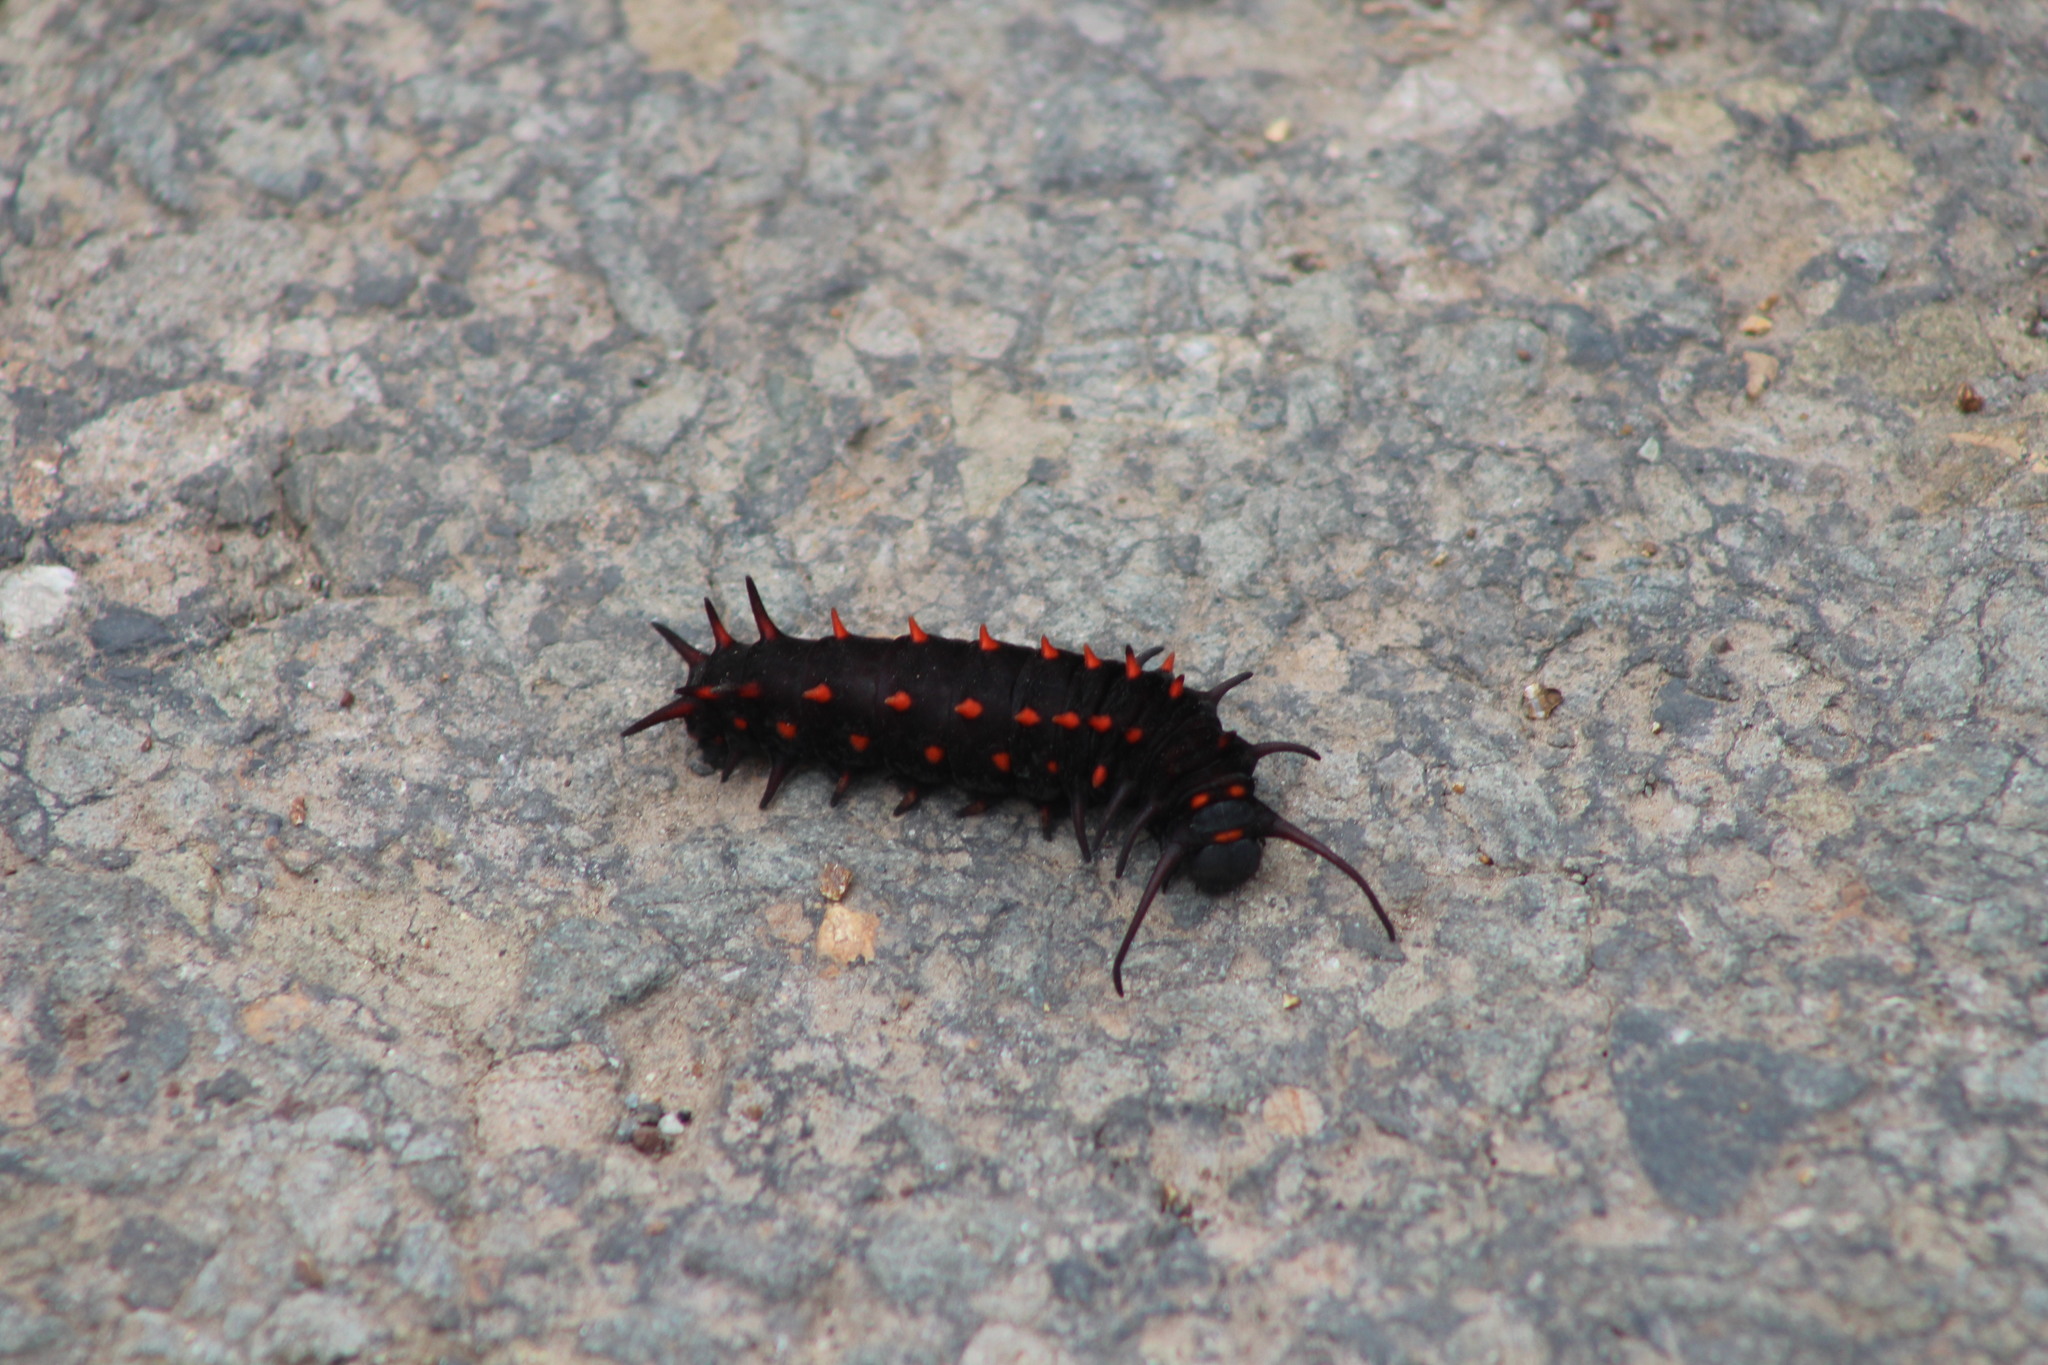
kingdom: Animalia
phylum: Arthropoda
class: Insecta
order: Lepidoptera
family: Papilionidae
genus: Battus
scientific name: Battus philenor
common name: Pipevine swallowtail
